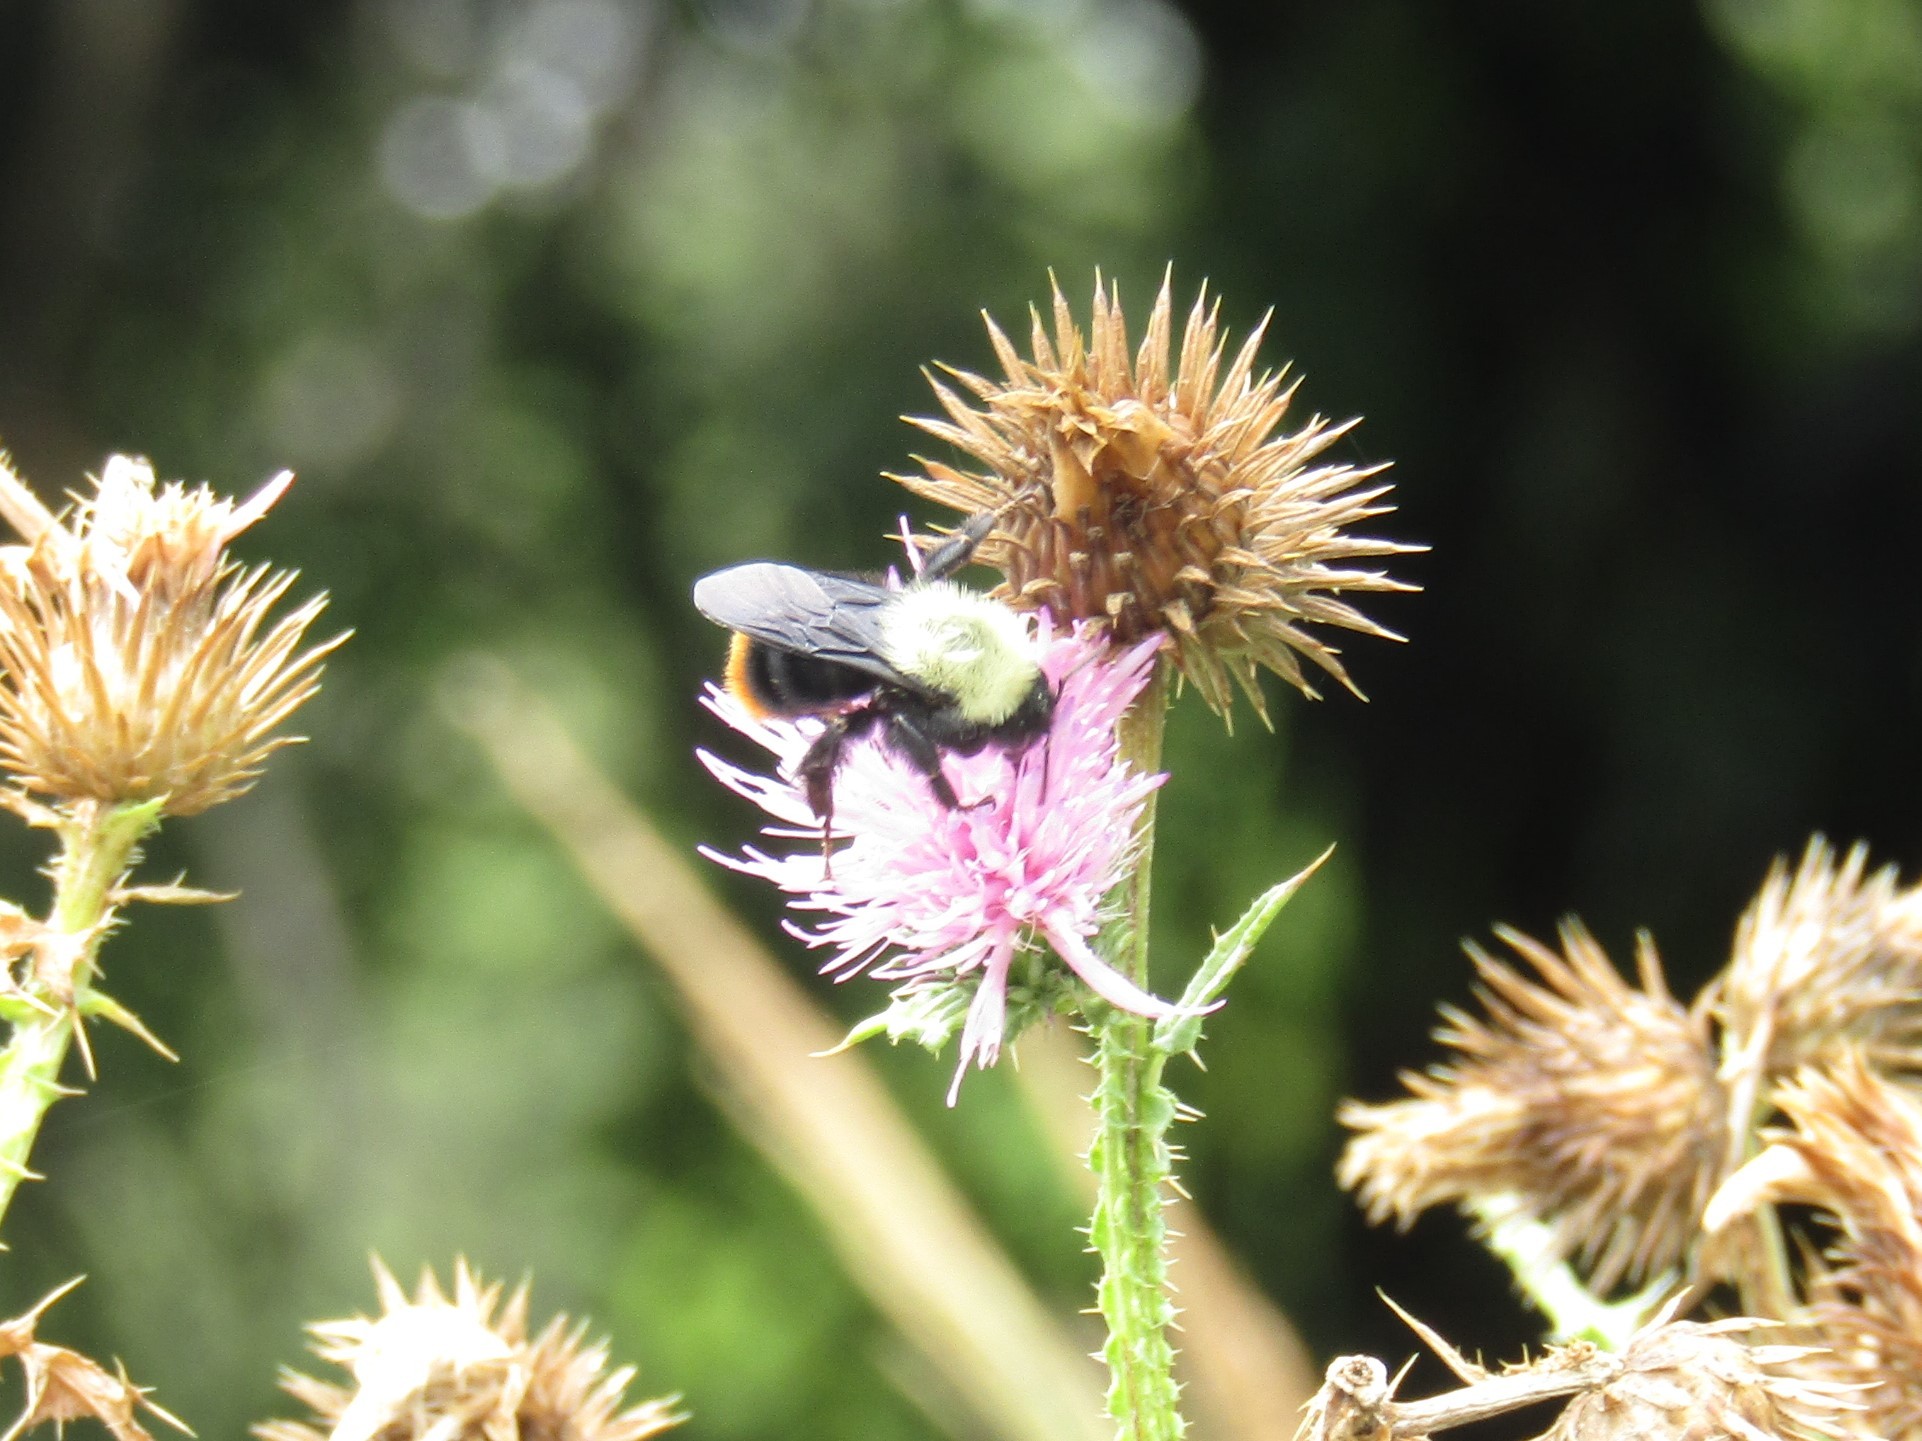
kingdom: Animalia
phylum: Arthropoda
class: Insecta
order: Hymenoptera
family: Apidae
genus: Bombus
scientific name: Bombus bellicosus
